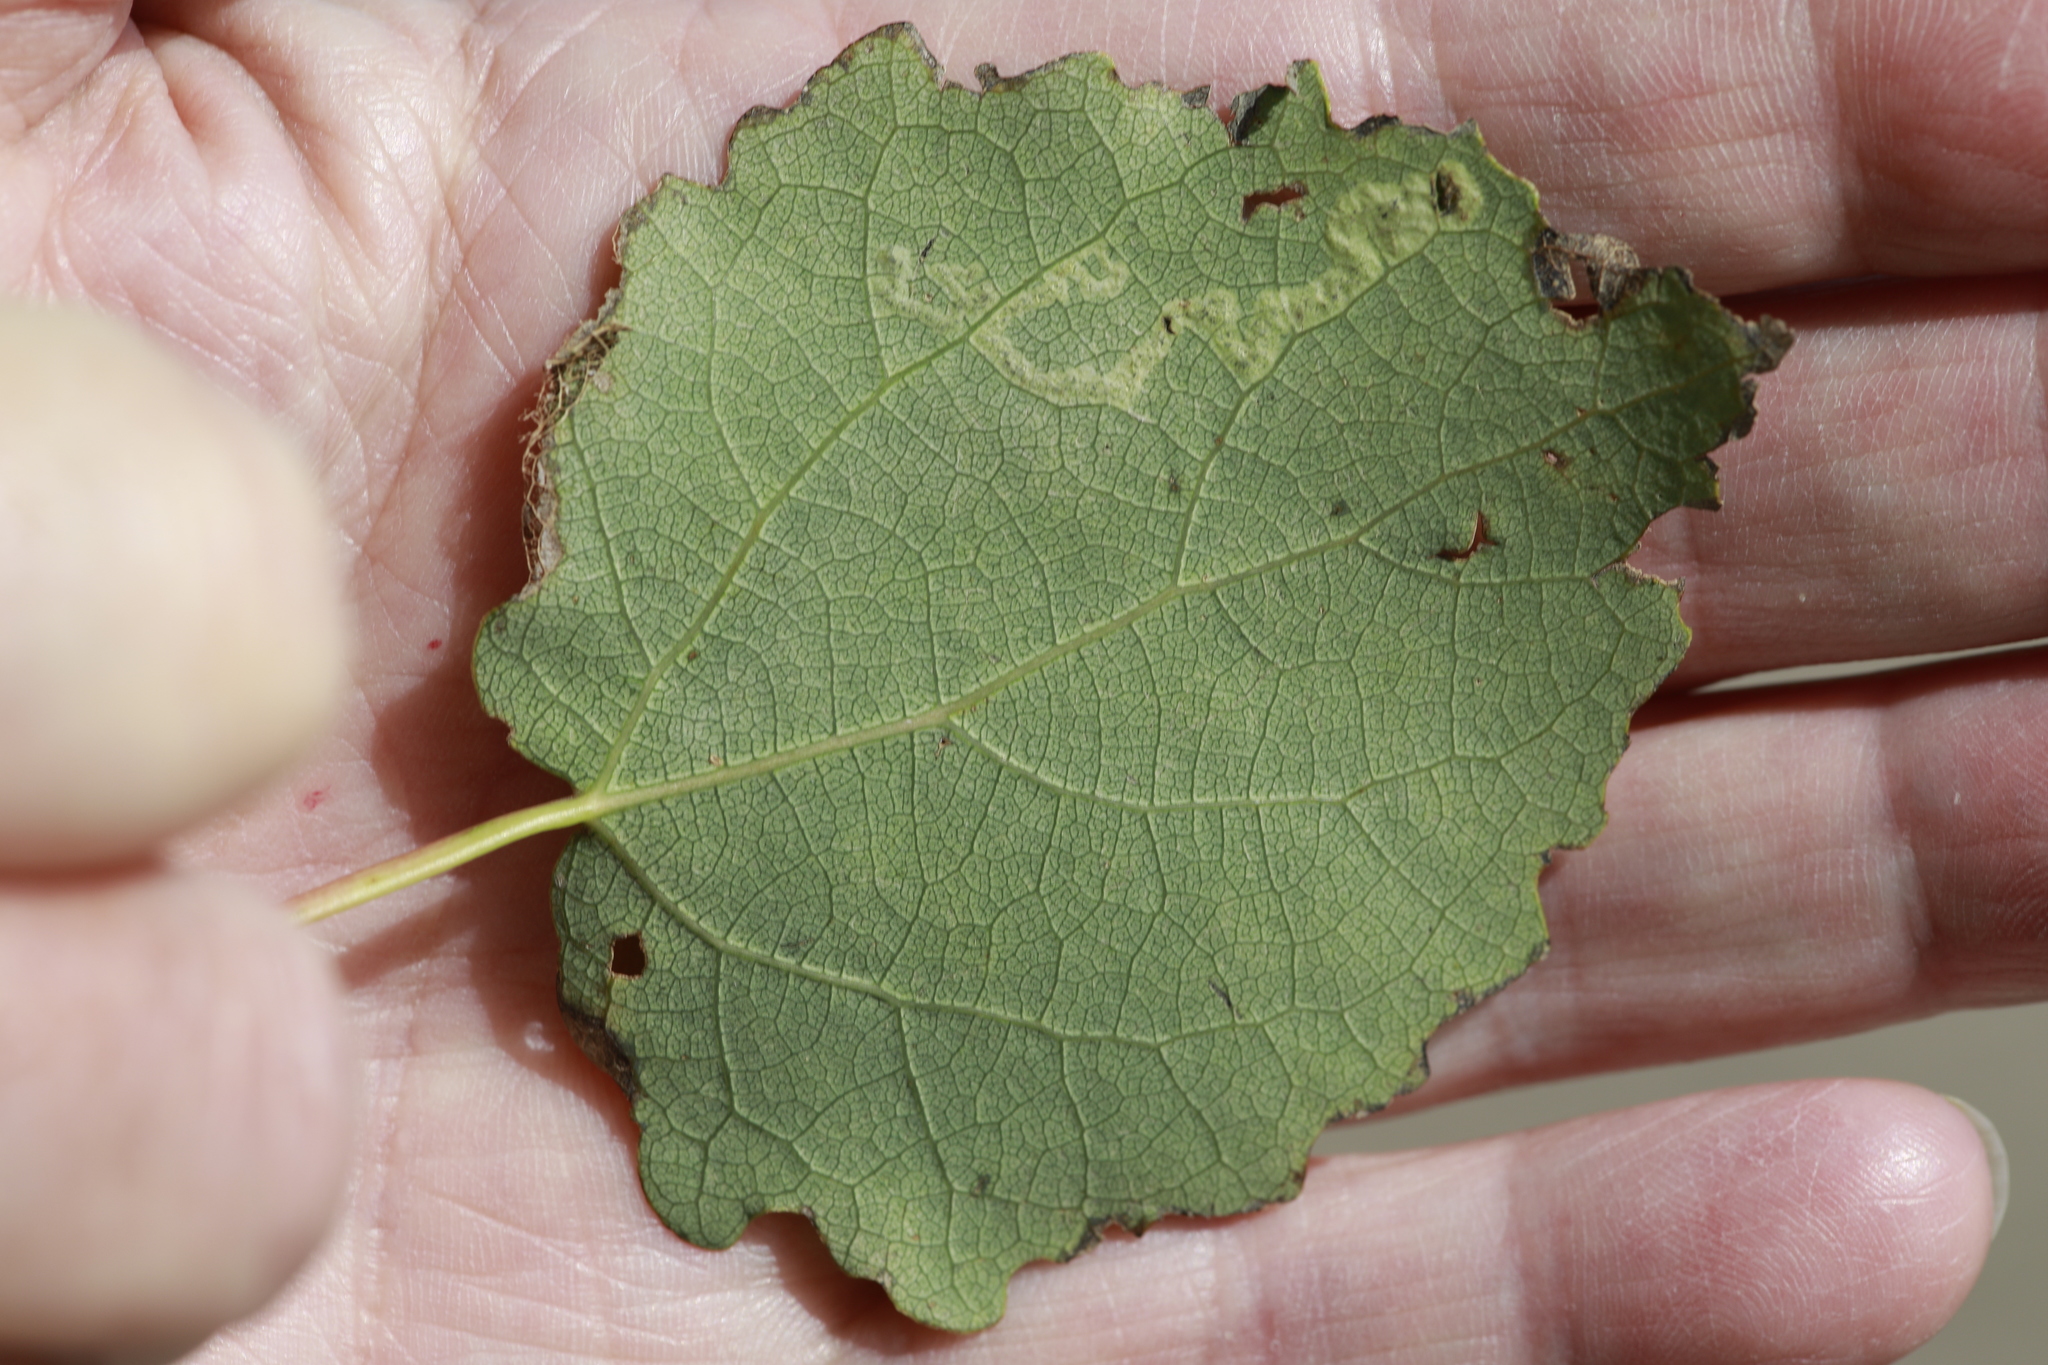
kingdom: Animalia
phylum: Arthropoda
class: Insecta
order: Diptera
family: Agromyzidae
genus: Aulagromyza
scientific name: Aulagromyza tremulae
